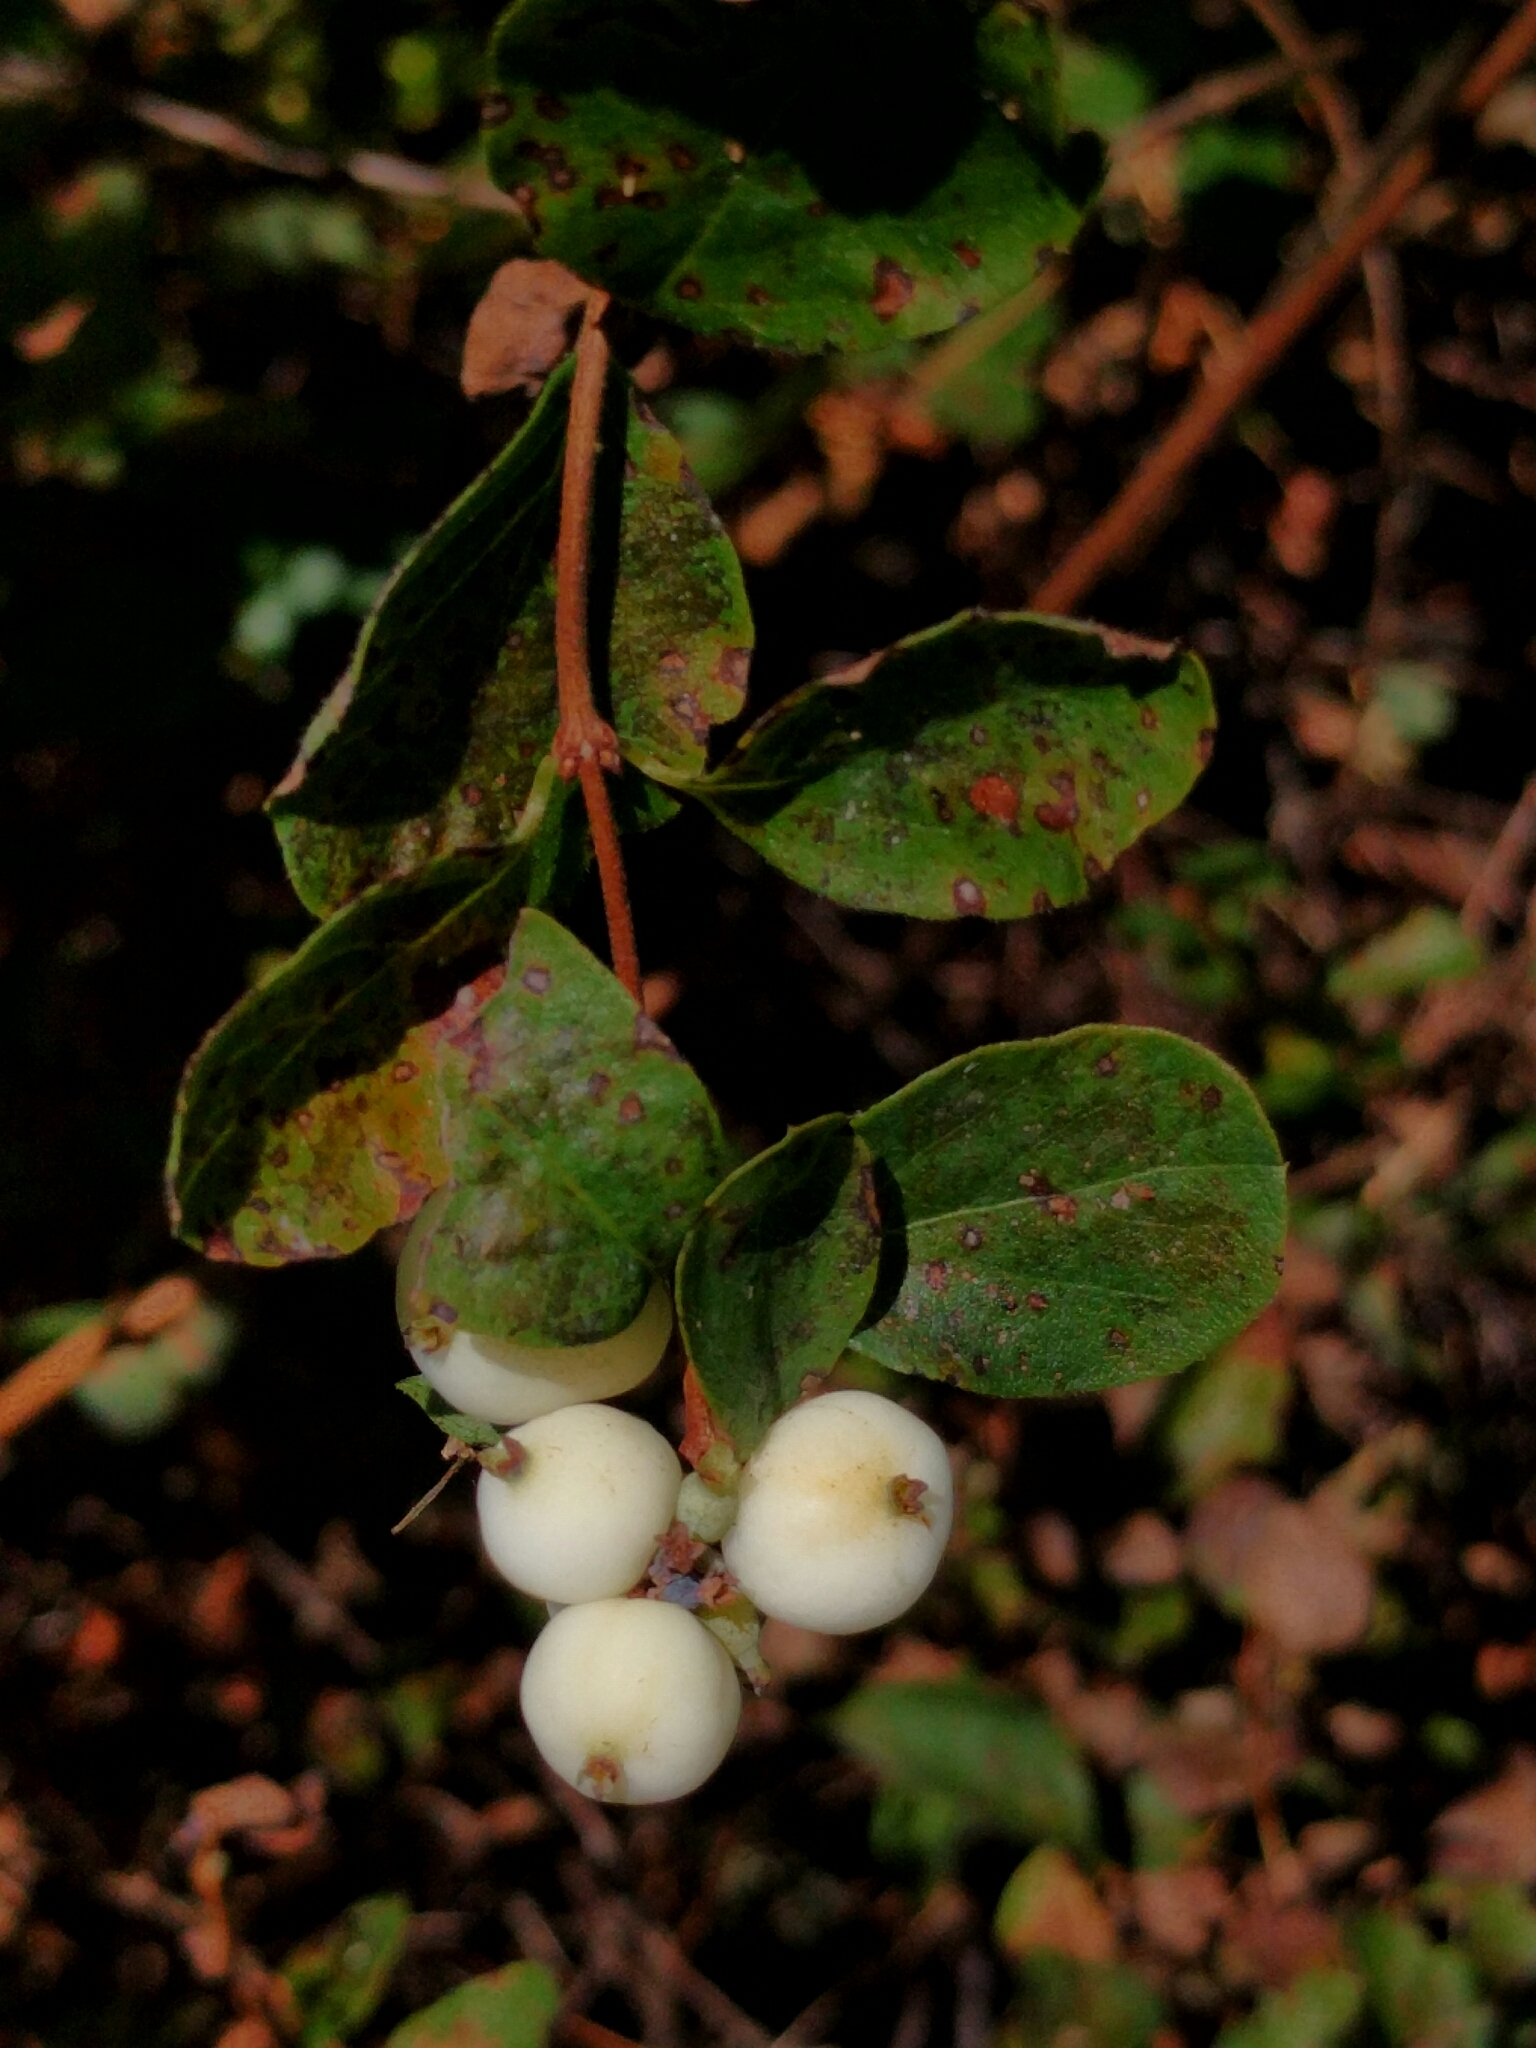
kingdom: Plantae
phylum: Tracheophyta
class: Magnoliopsida
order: Dipsacales
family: Caprifoliaceae
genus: Symphoricarpos
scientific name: Symphoricarpos albus
